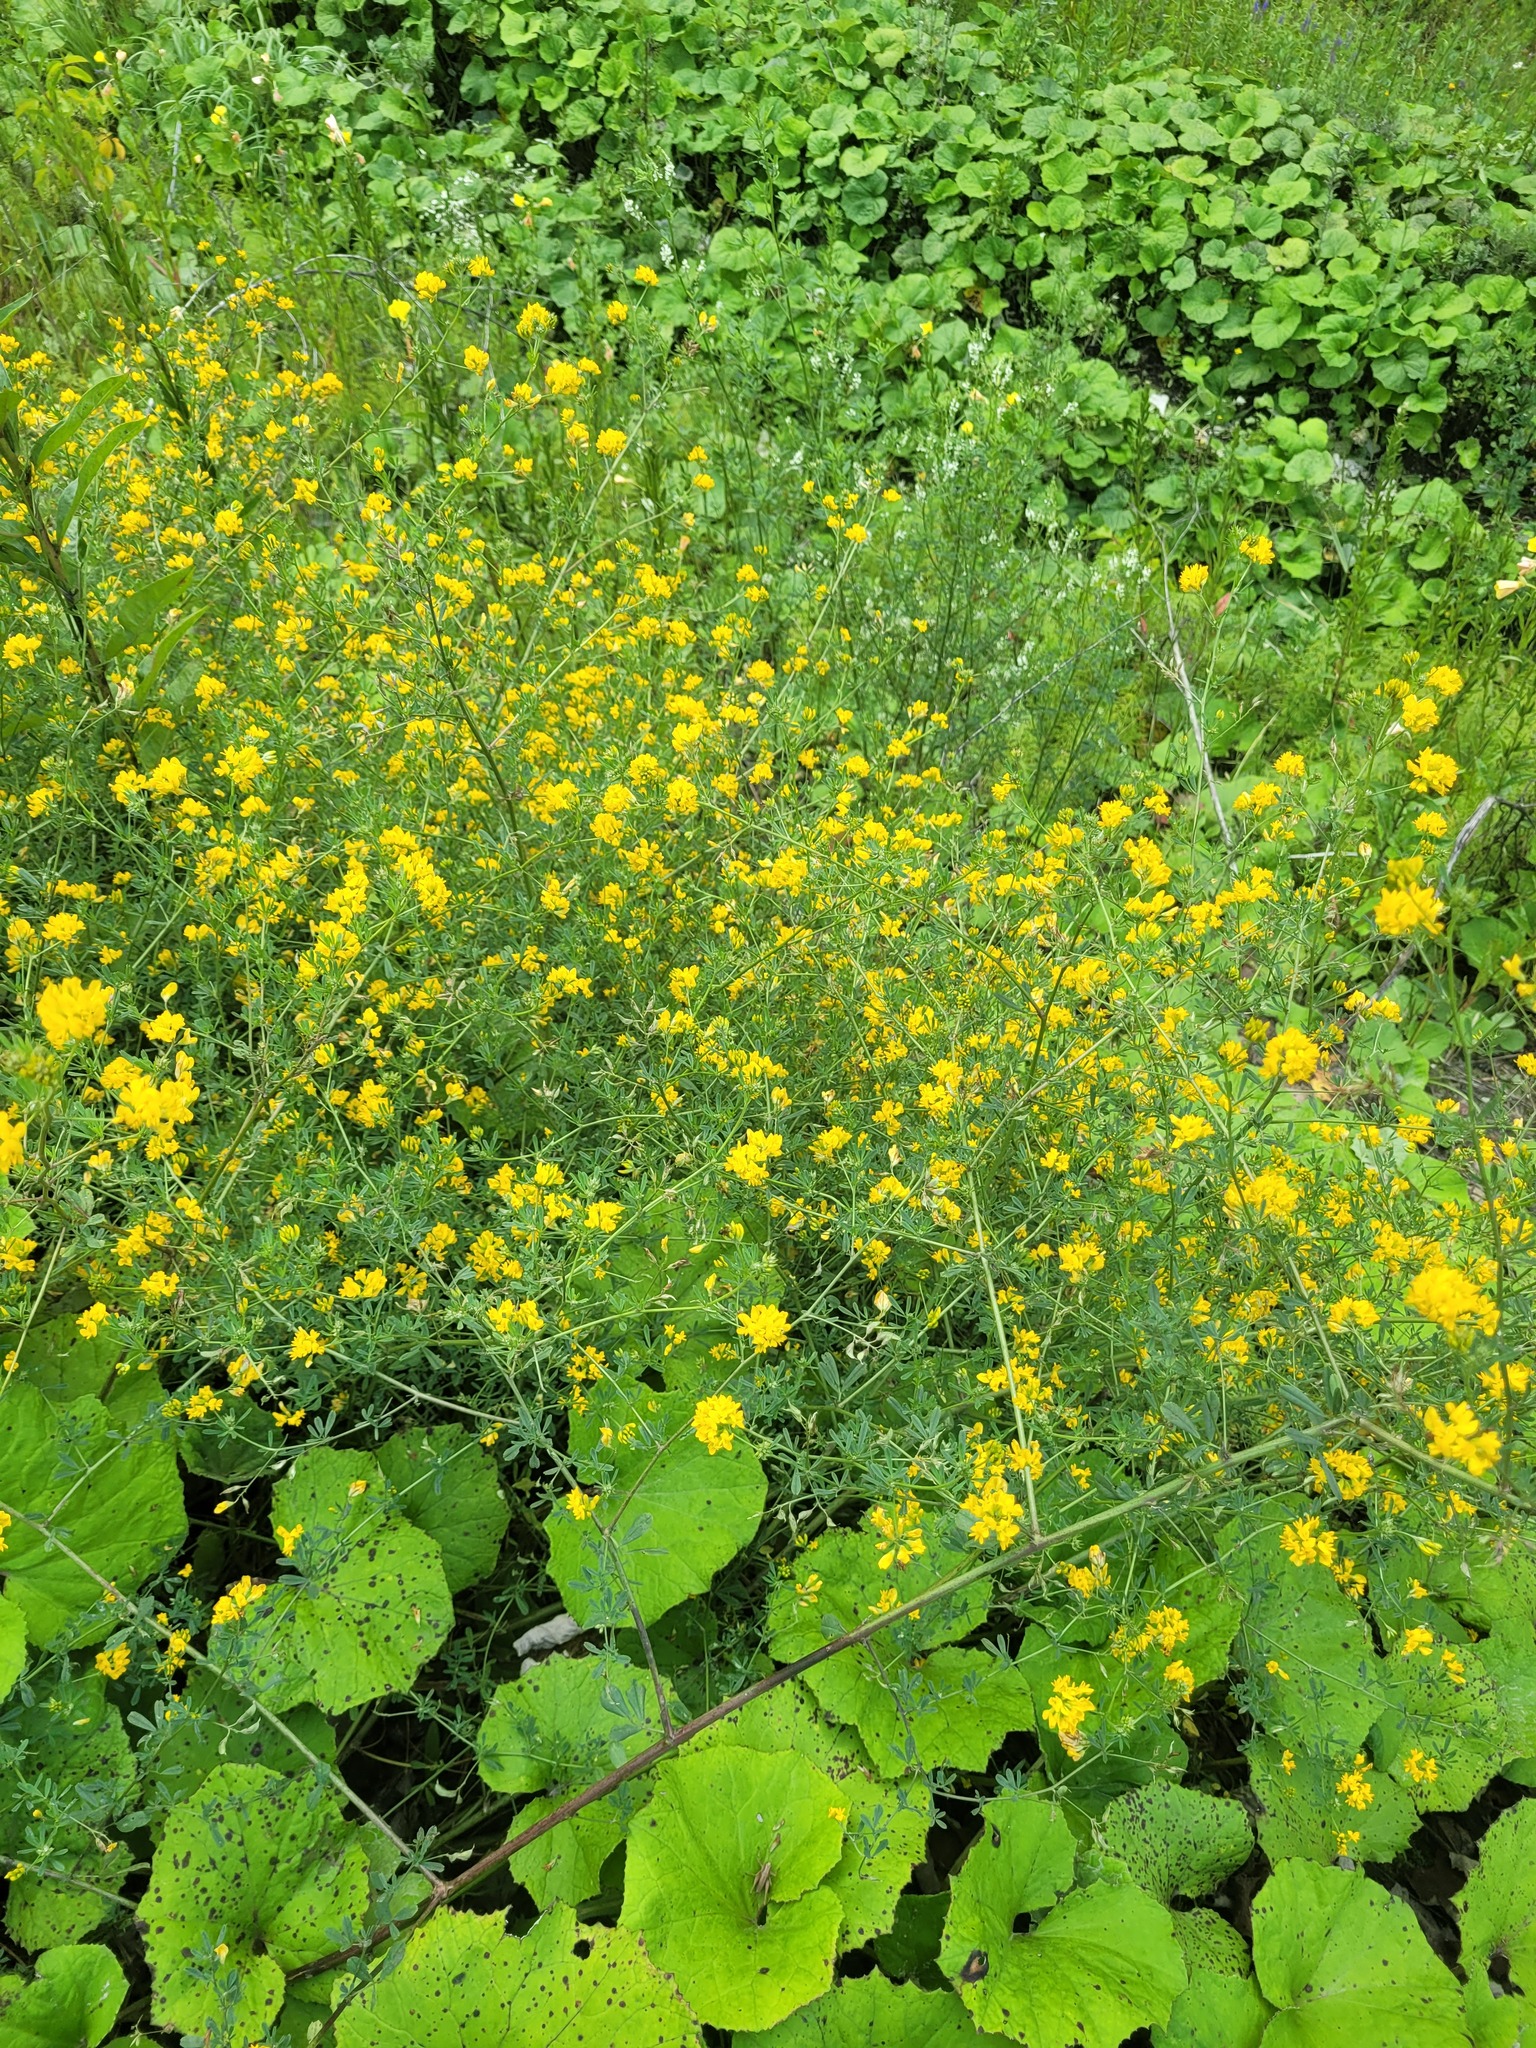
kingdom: Plantae
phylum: Tracheophyta
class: Magnoliopsida
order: Fabales
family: Fabaceae
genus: Medicago
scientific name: Medicago falcata
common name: Sickle medick
